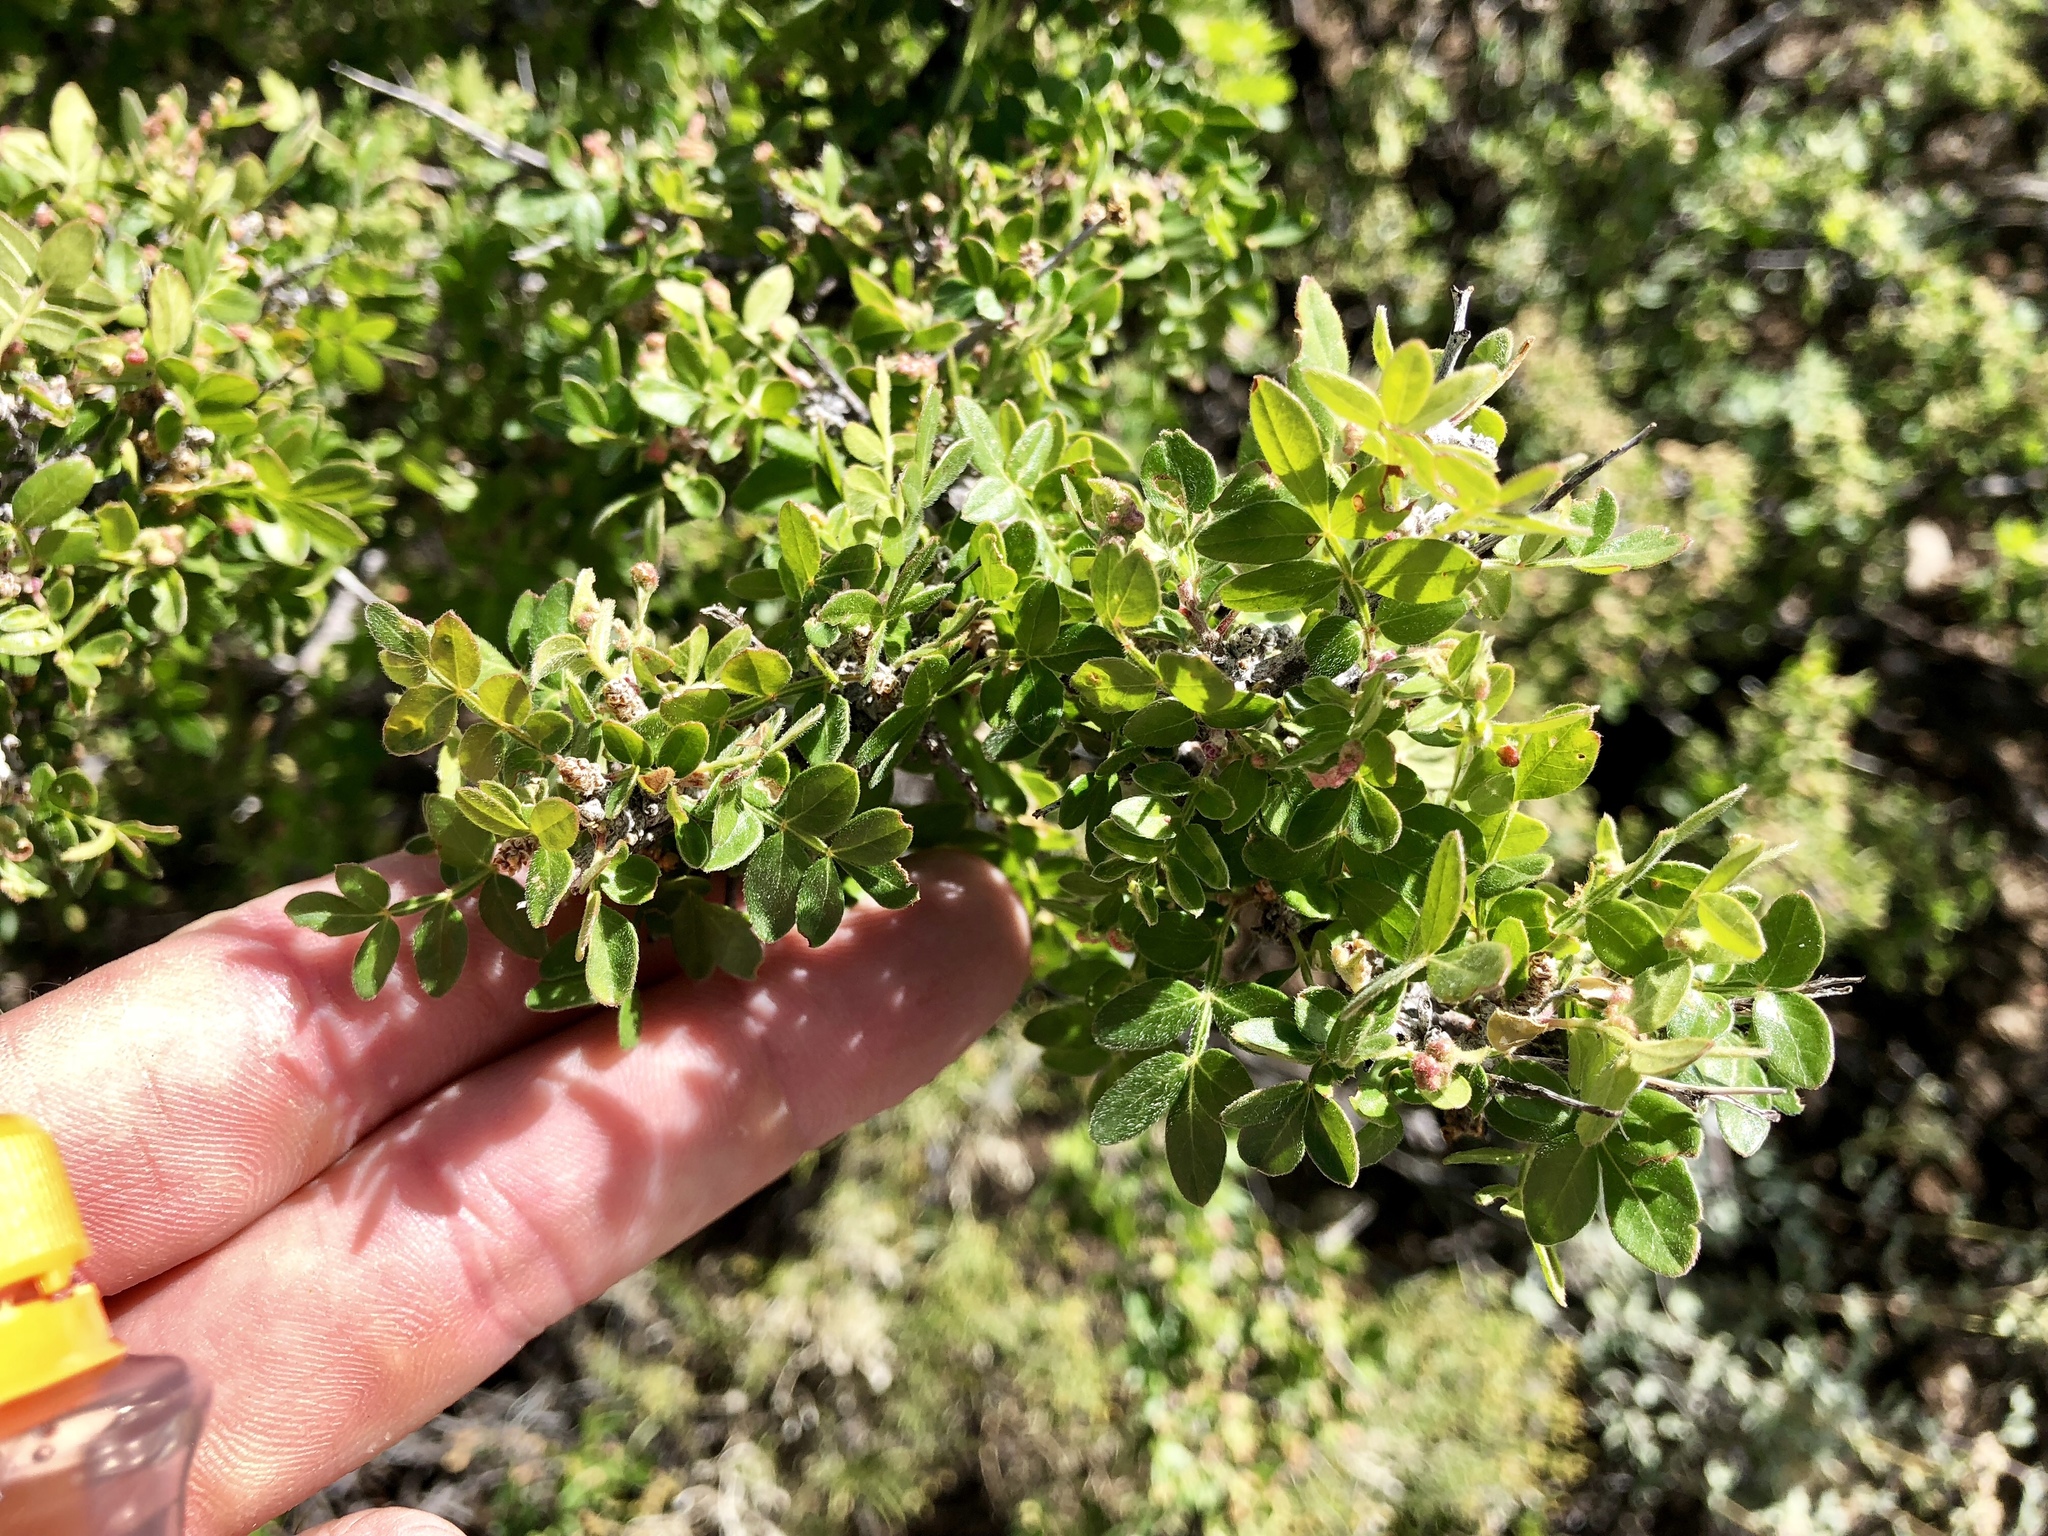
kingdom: Plantae
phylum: Tracheophyta
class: Magnoliopsida
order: Sapindales
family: Anacardiaceae
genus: Rhus
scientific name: Rhus microphylla
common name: Desert sumac
